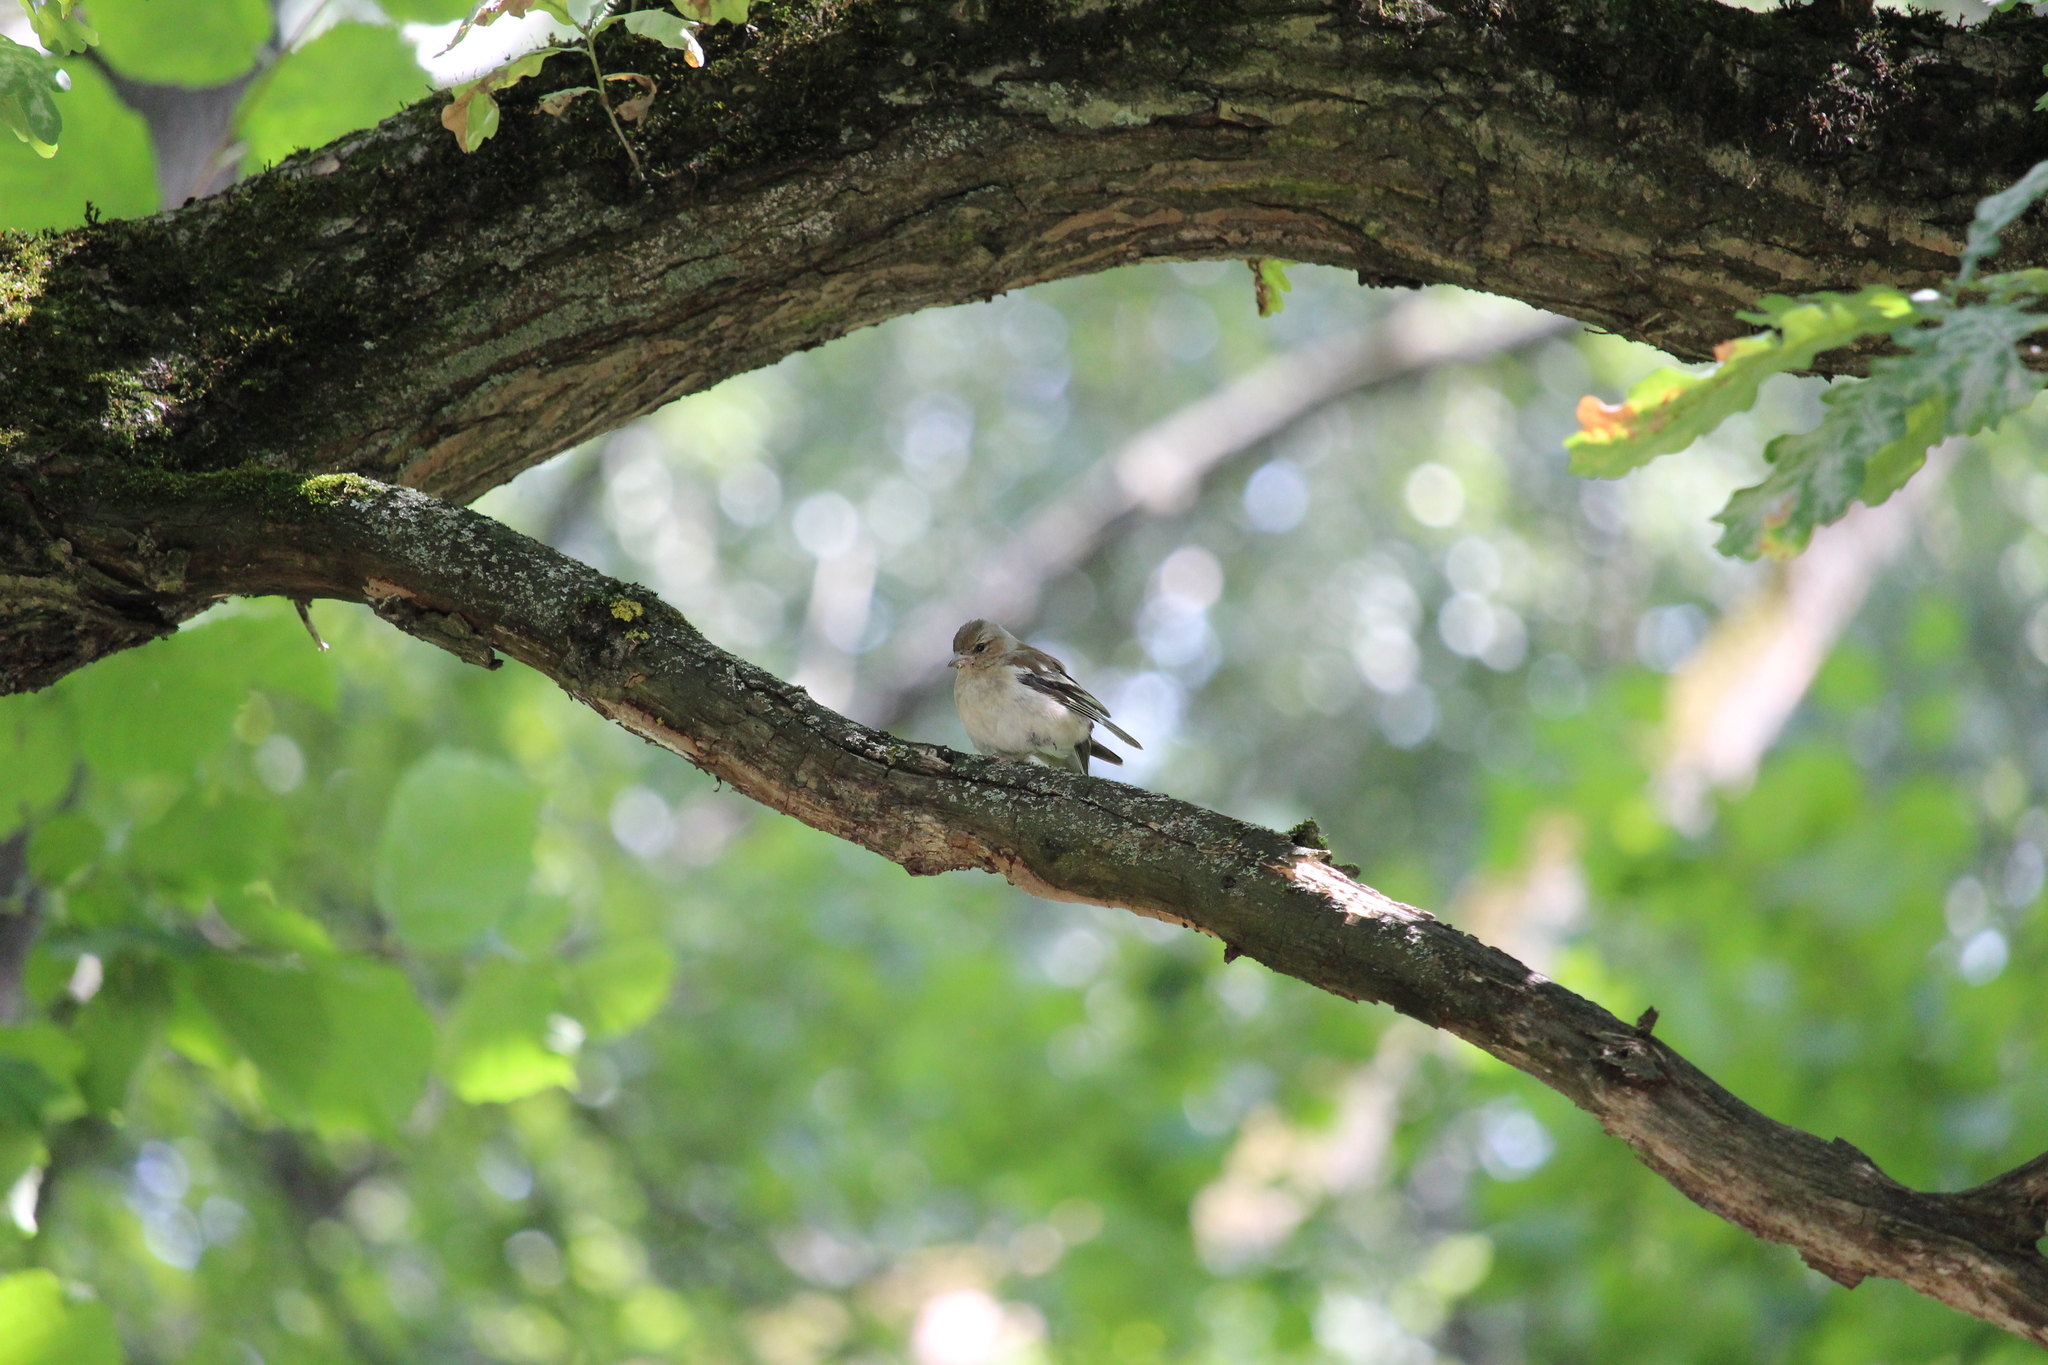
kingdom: Animalia
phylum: Chordata
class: Aves
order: Passeriformes
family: Fringillidae
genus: Fringilla
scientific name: Fringilla coelebs
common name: Common chaffinch
